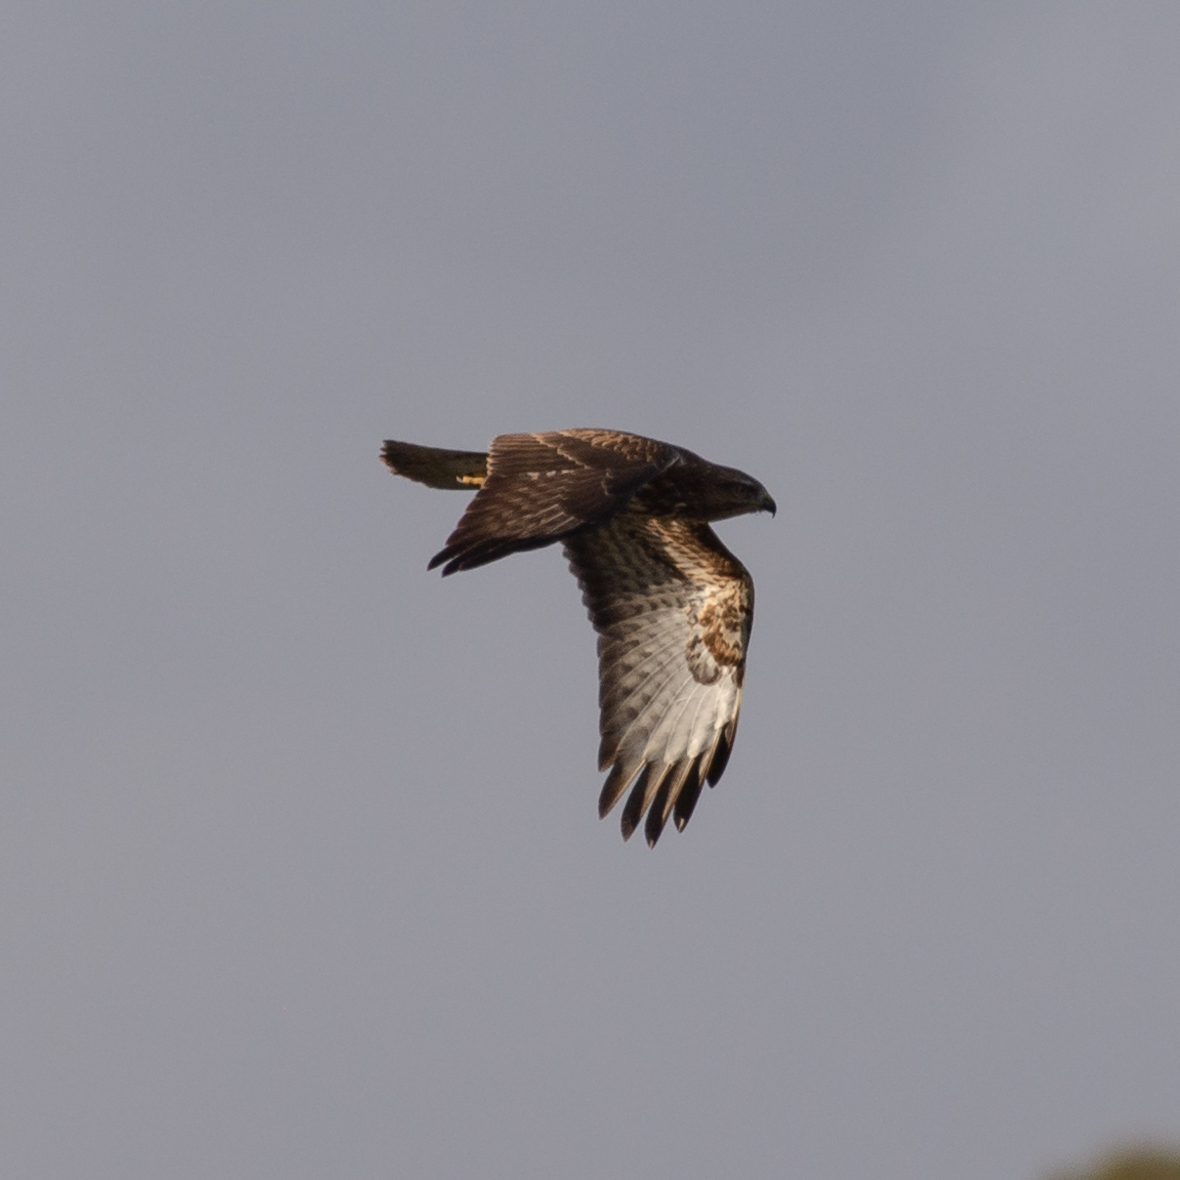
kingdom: Animalia
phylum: Chordata
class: Aves
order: Accipitriformes
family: Accipitridae
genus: Buteo
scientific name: Buteo buteo
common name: Common buzzard
